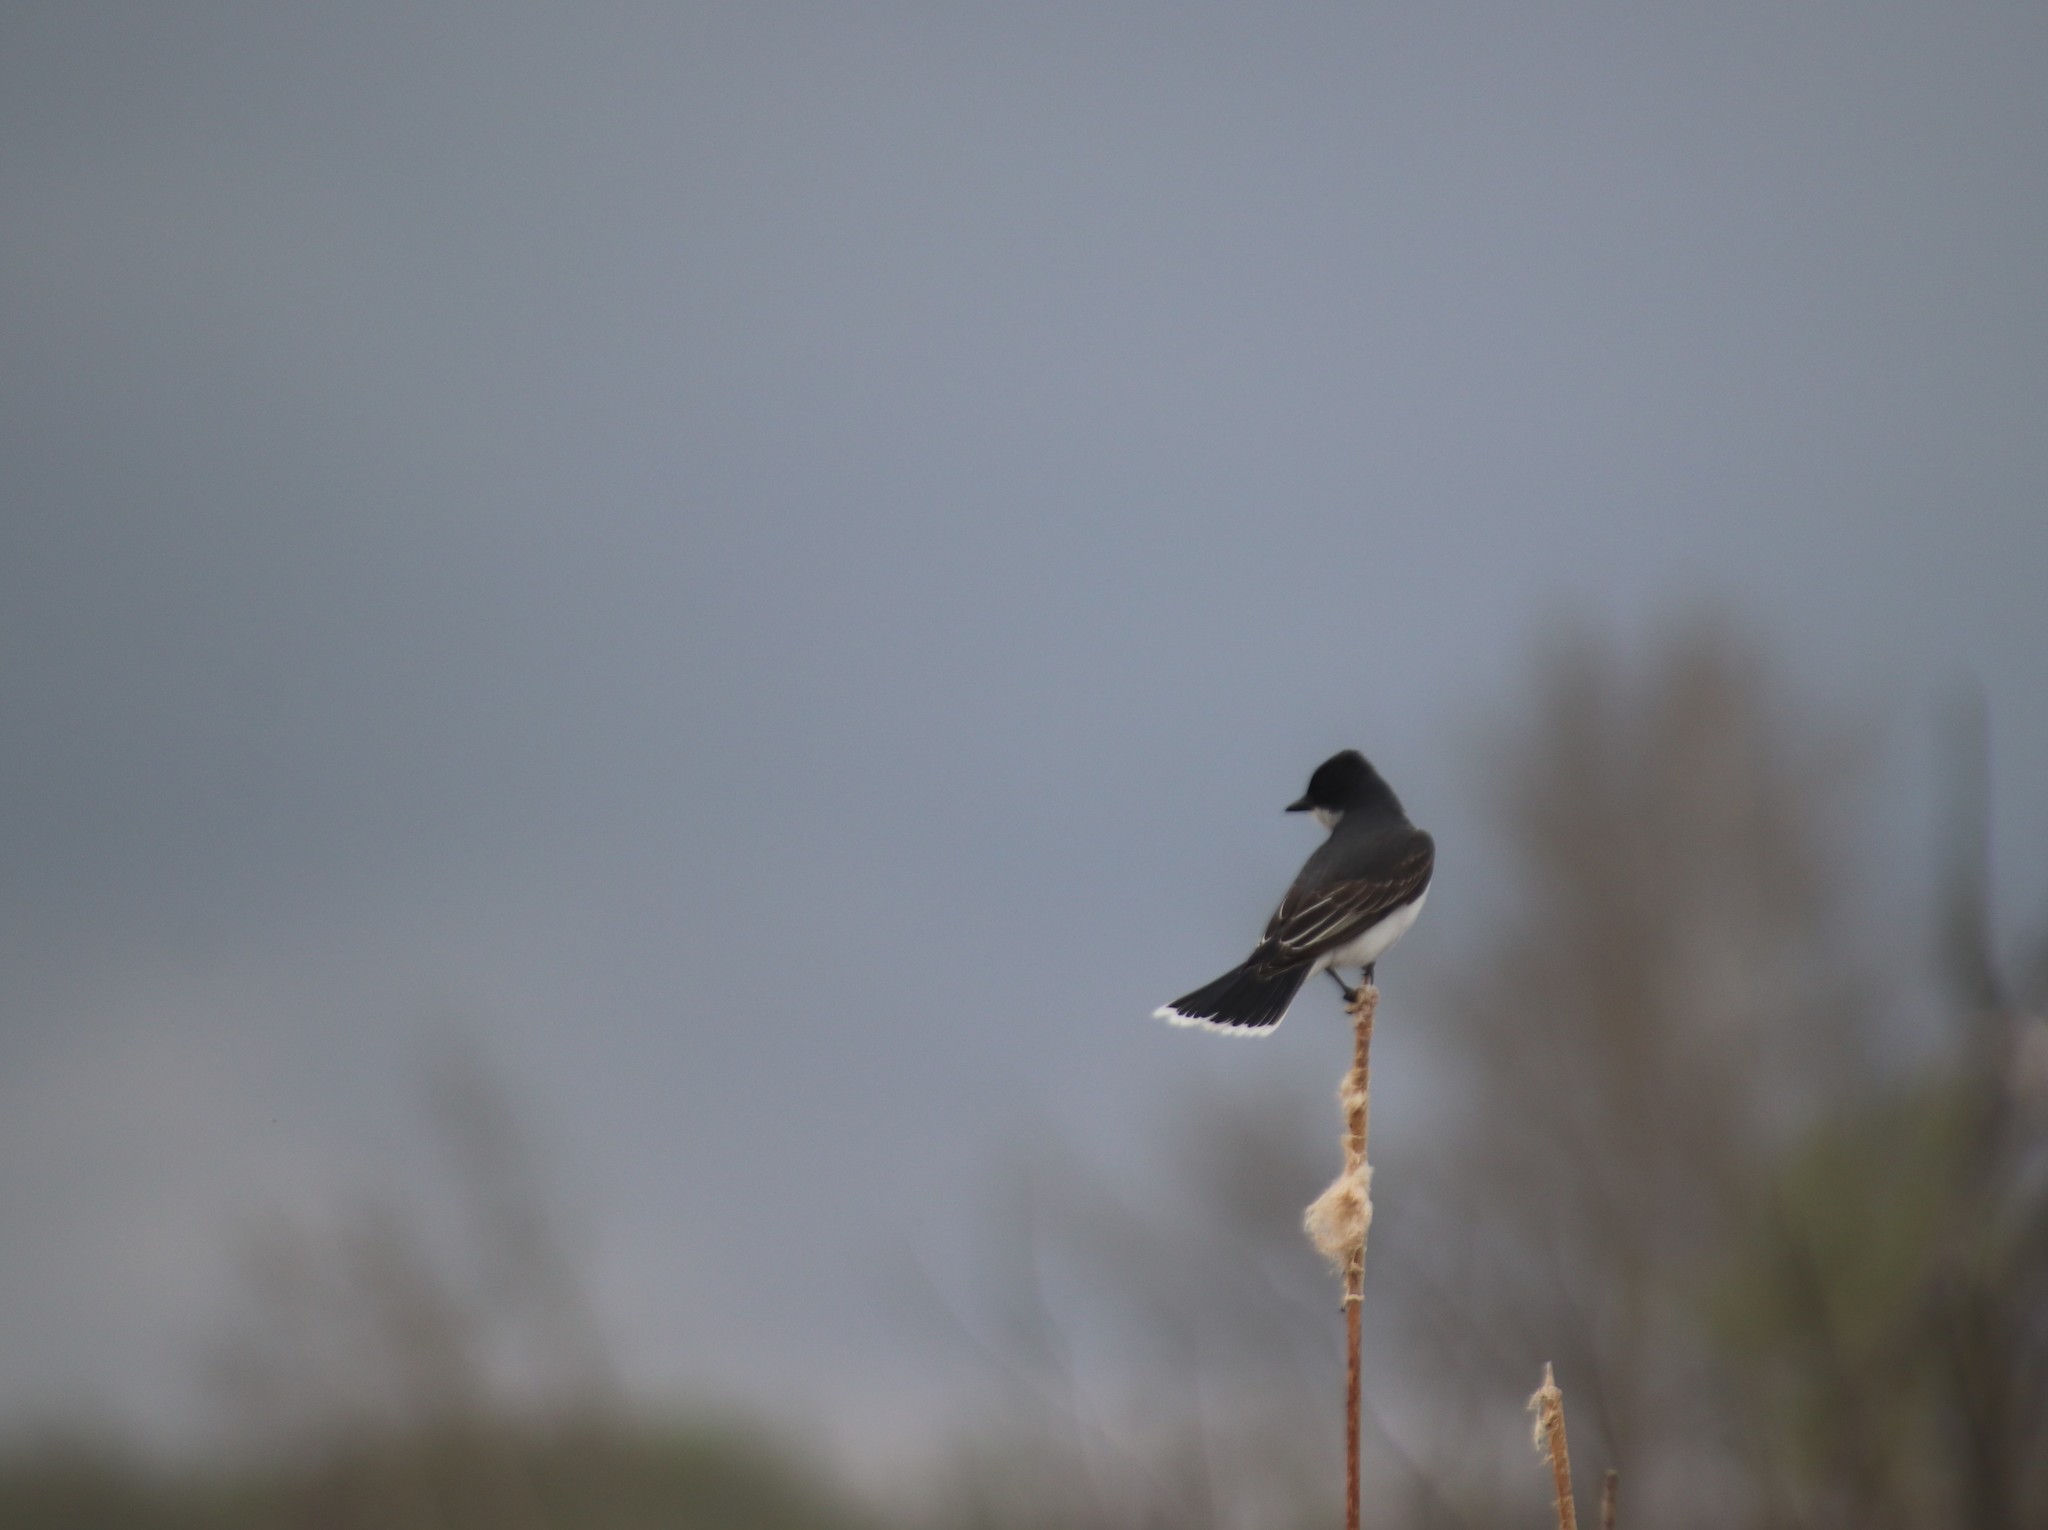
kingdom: Animalia
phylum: Chordata
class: Aves
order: Passeriformes
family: Tyrannidae
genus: Tyrannus
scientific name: Tyrannus tyrannus
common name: Eastern kingbird
